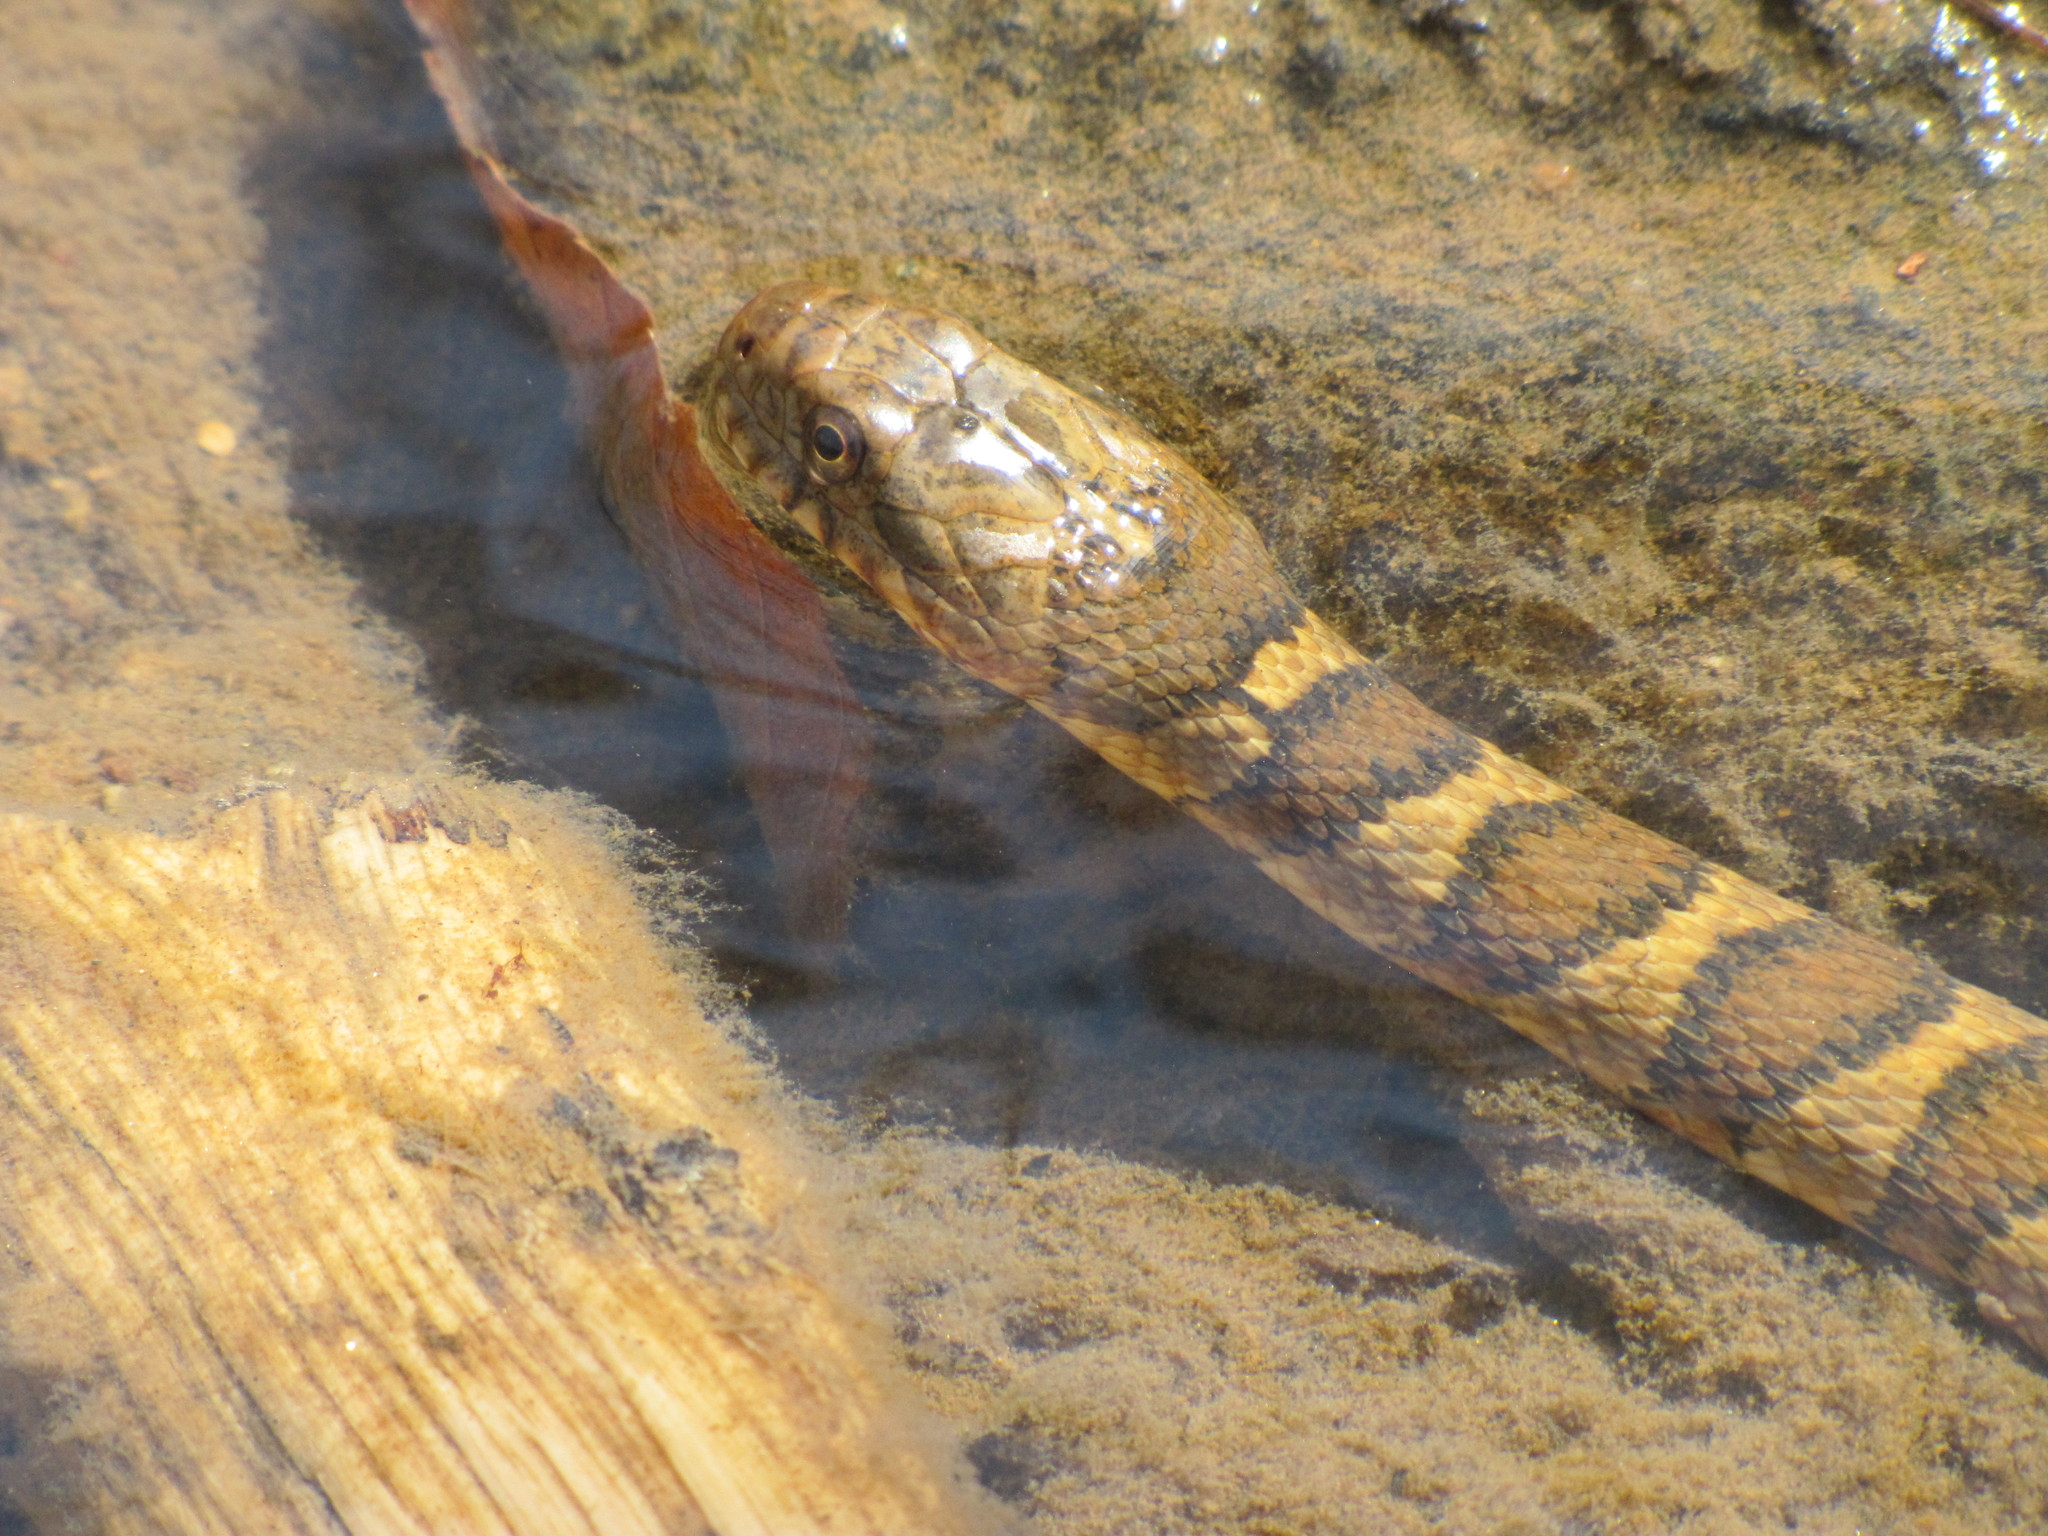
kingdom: Animalia
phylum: Chordata
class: Squamata
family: Colubridae
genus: Nerodia
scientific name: Nerodia sipedon
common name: Northern water snake
